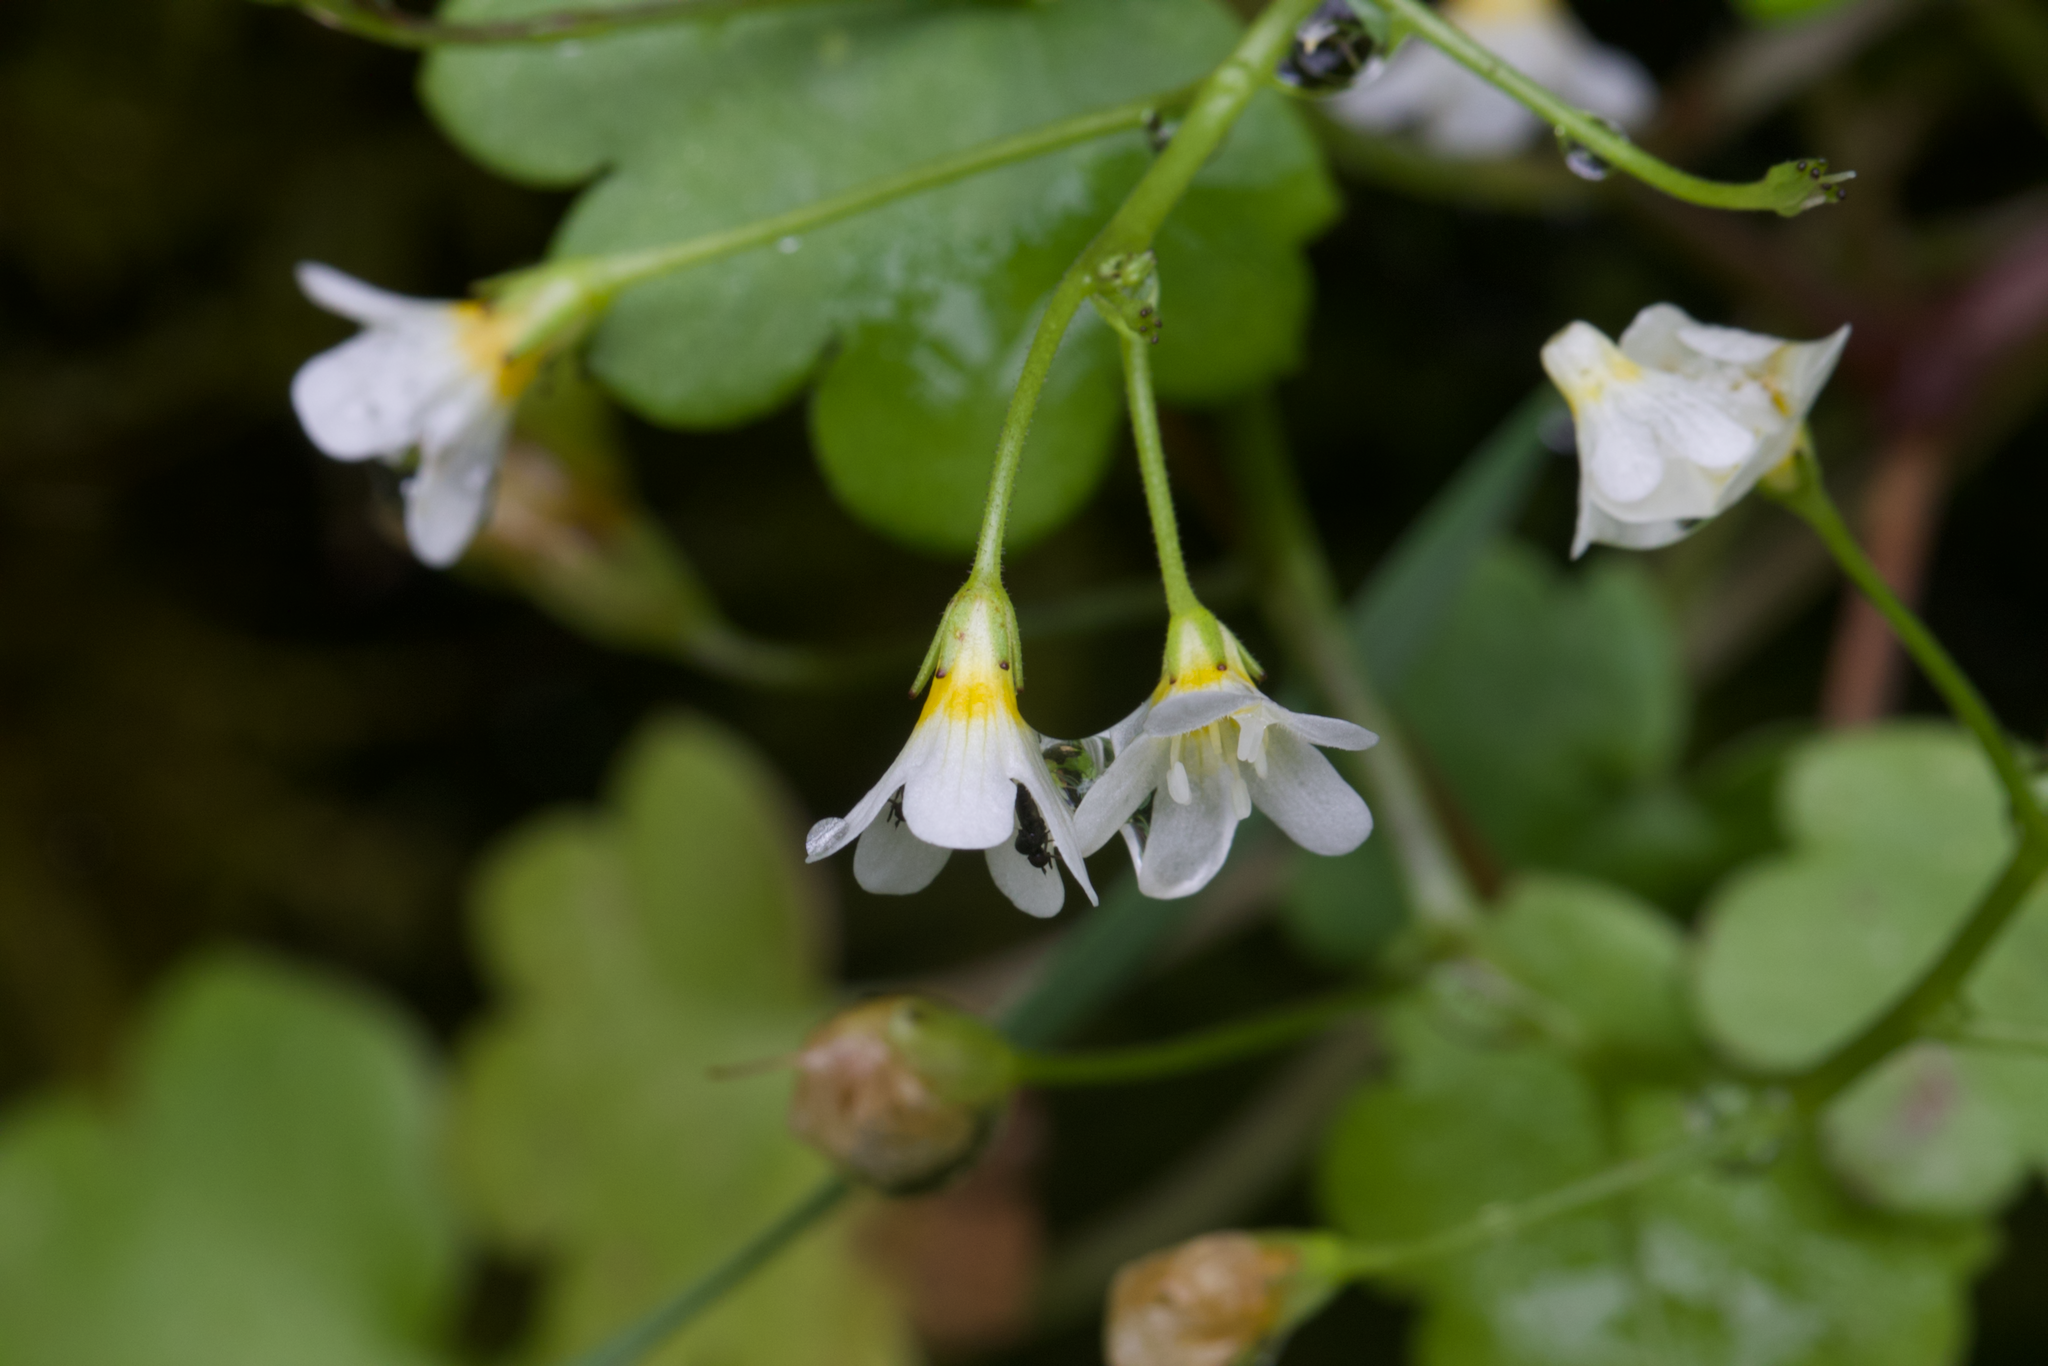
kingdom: Plantae
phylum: Tracheophyta
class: Magnoliopsida
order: Boraginales
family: Hydrophyllaceae
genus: Romanzoffia
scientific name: Romanzoffia californica
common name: California mistmaiden
